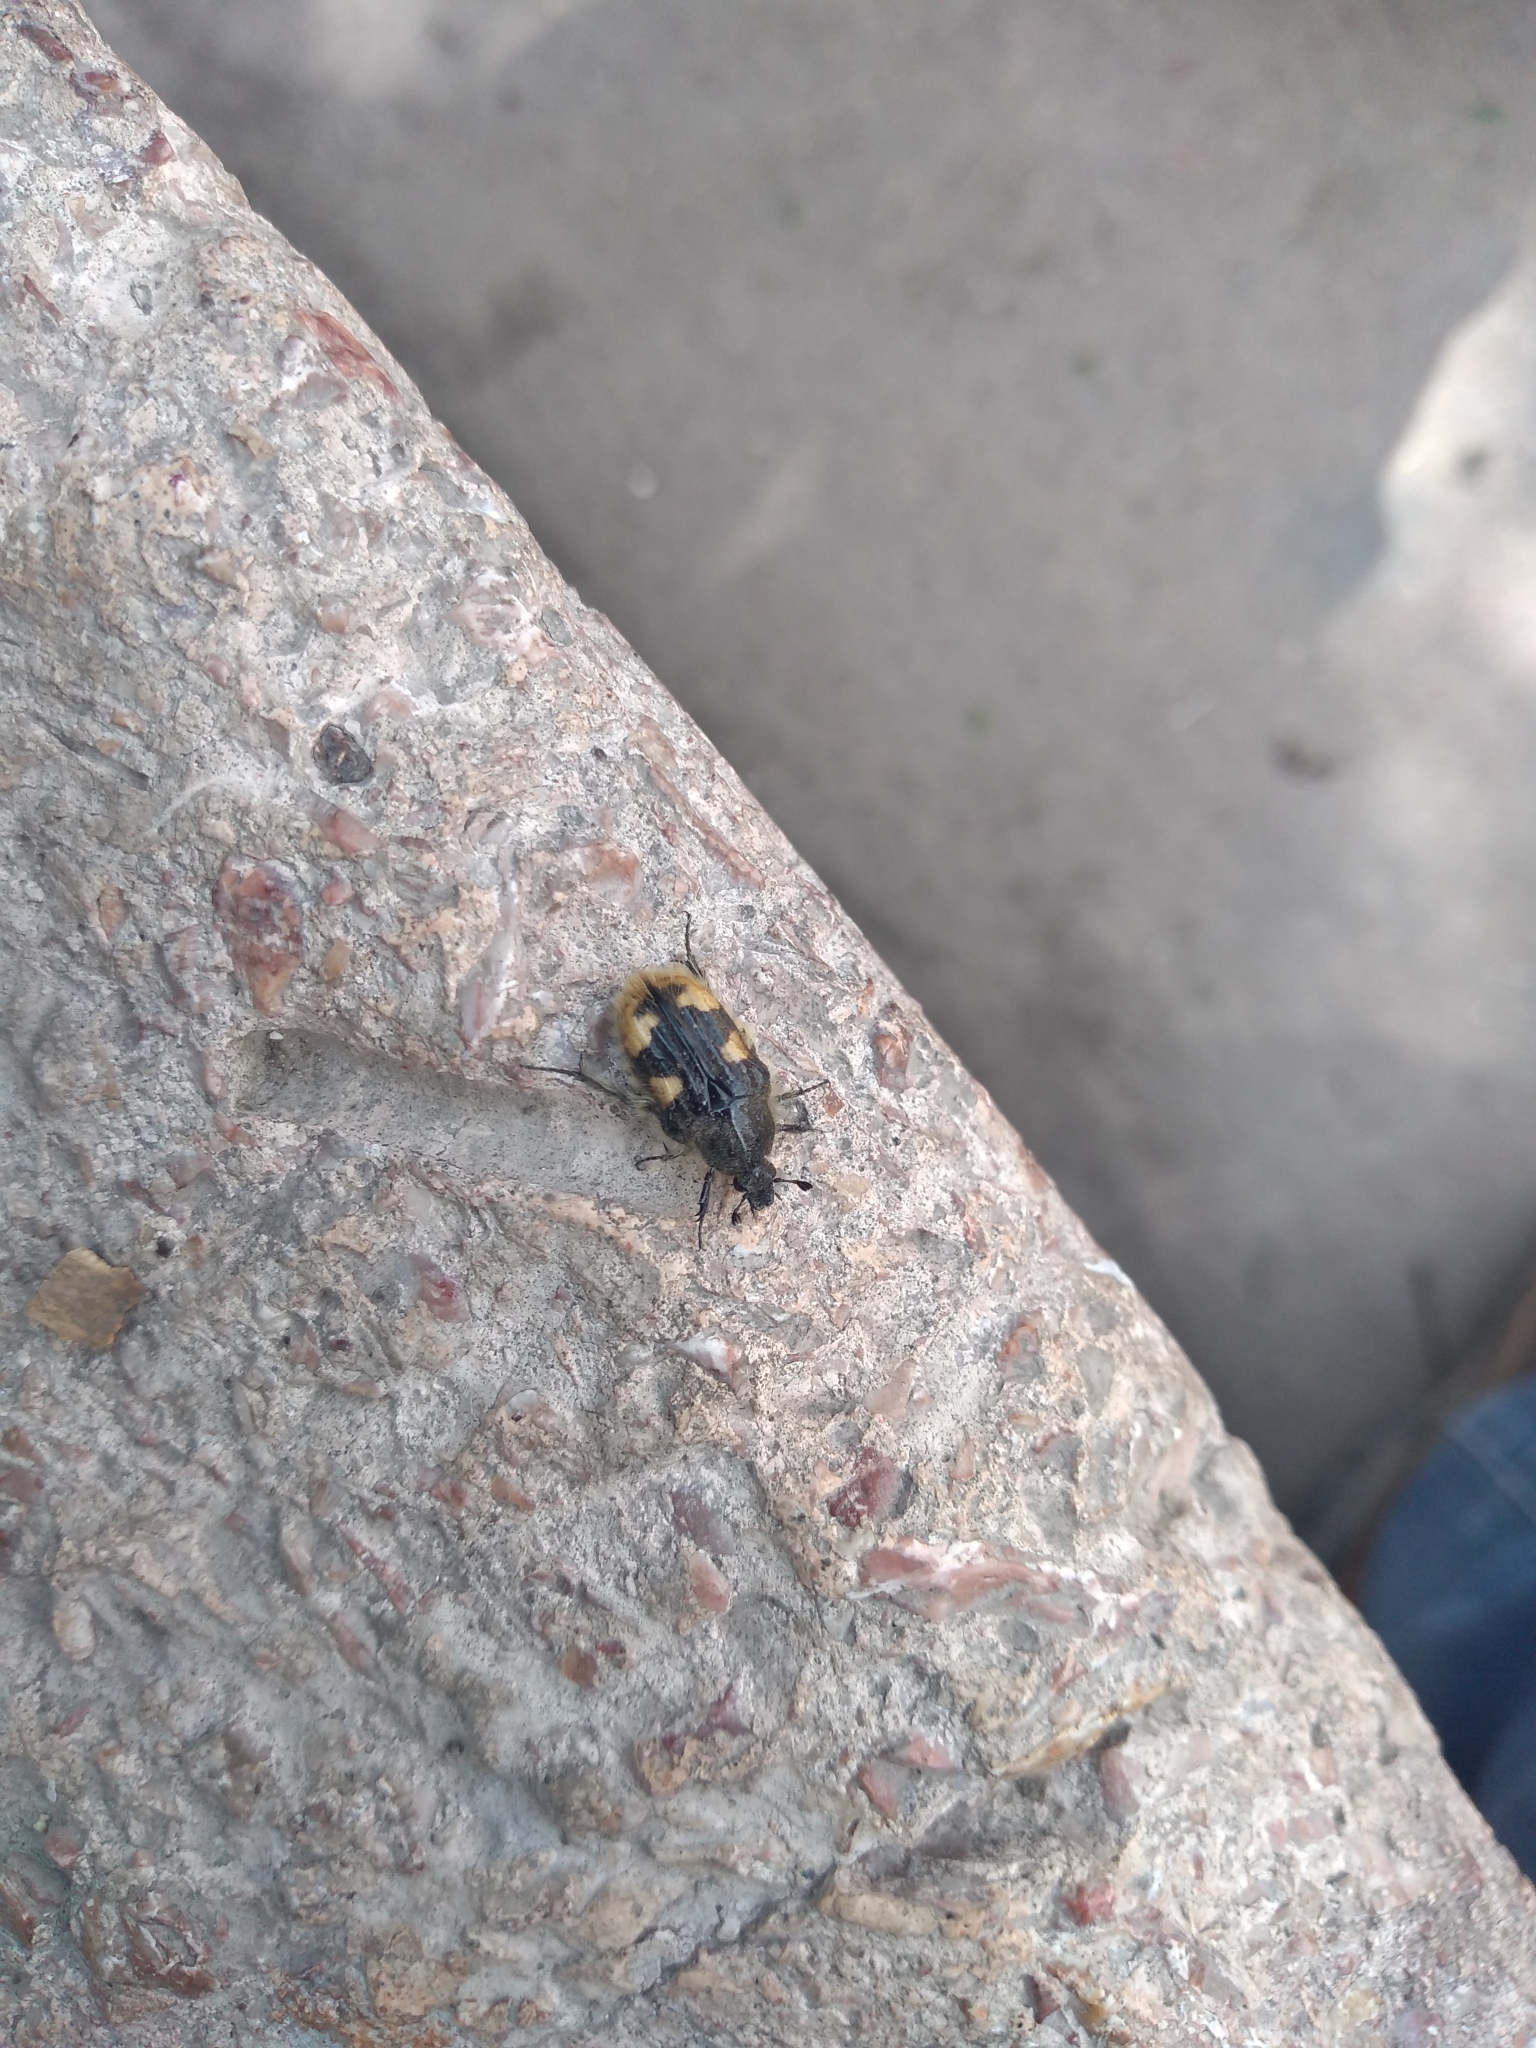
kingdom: Animalia
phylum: Arthropoda
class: Insecta
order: Coleoptera
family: Scarabaeidae
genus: Euphoria
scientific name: Euphoria basalis
